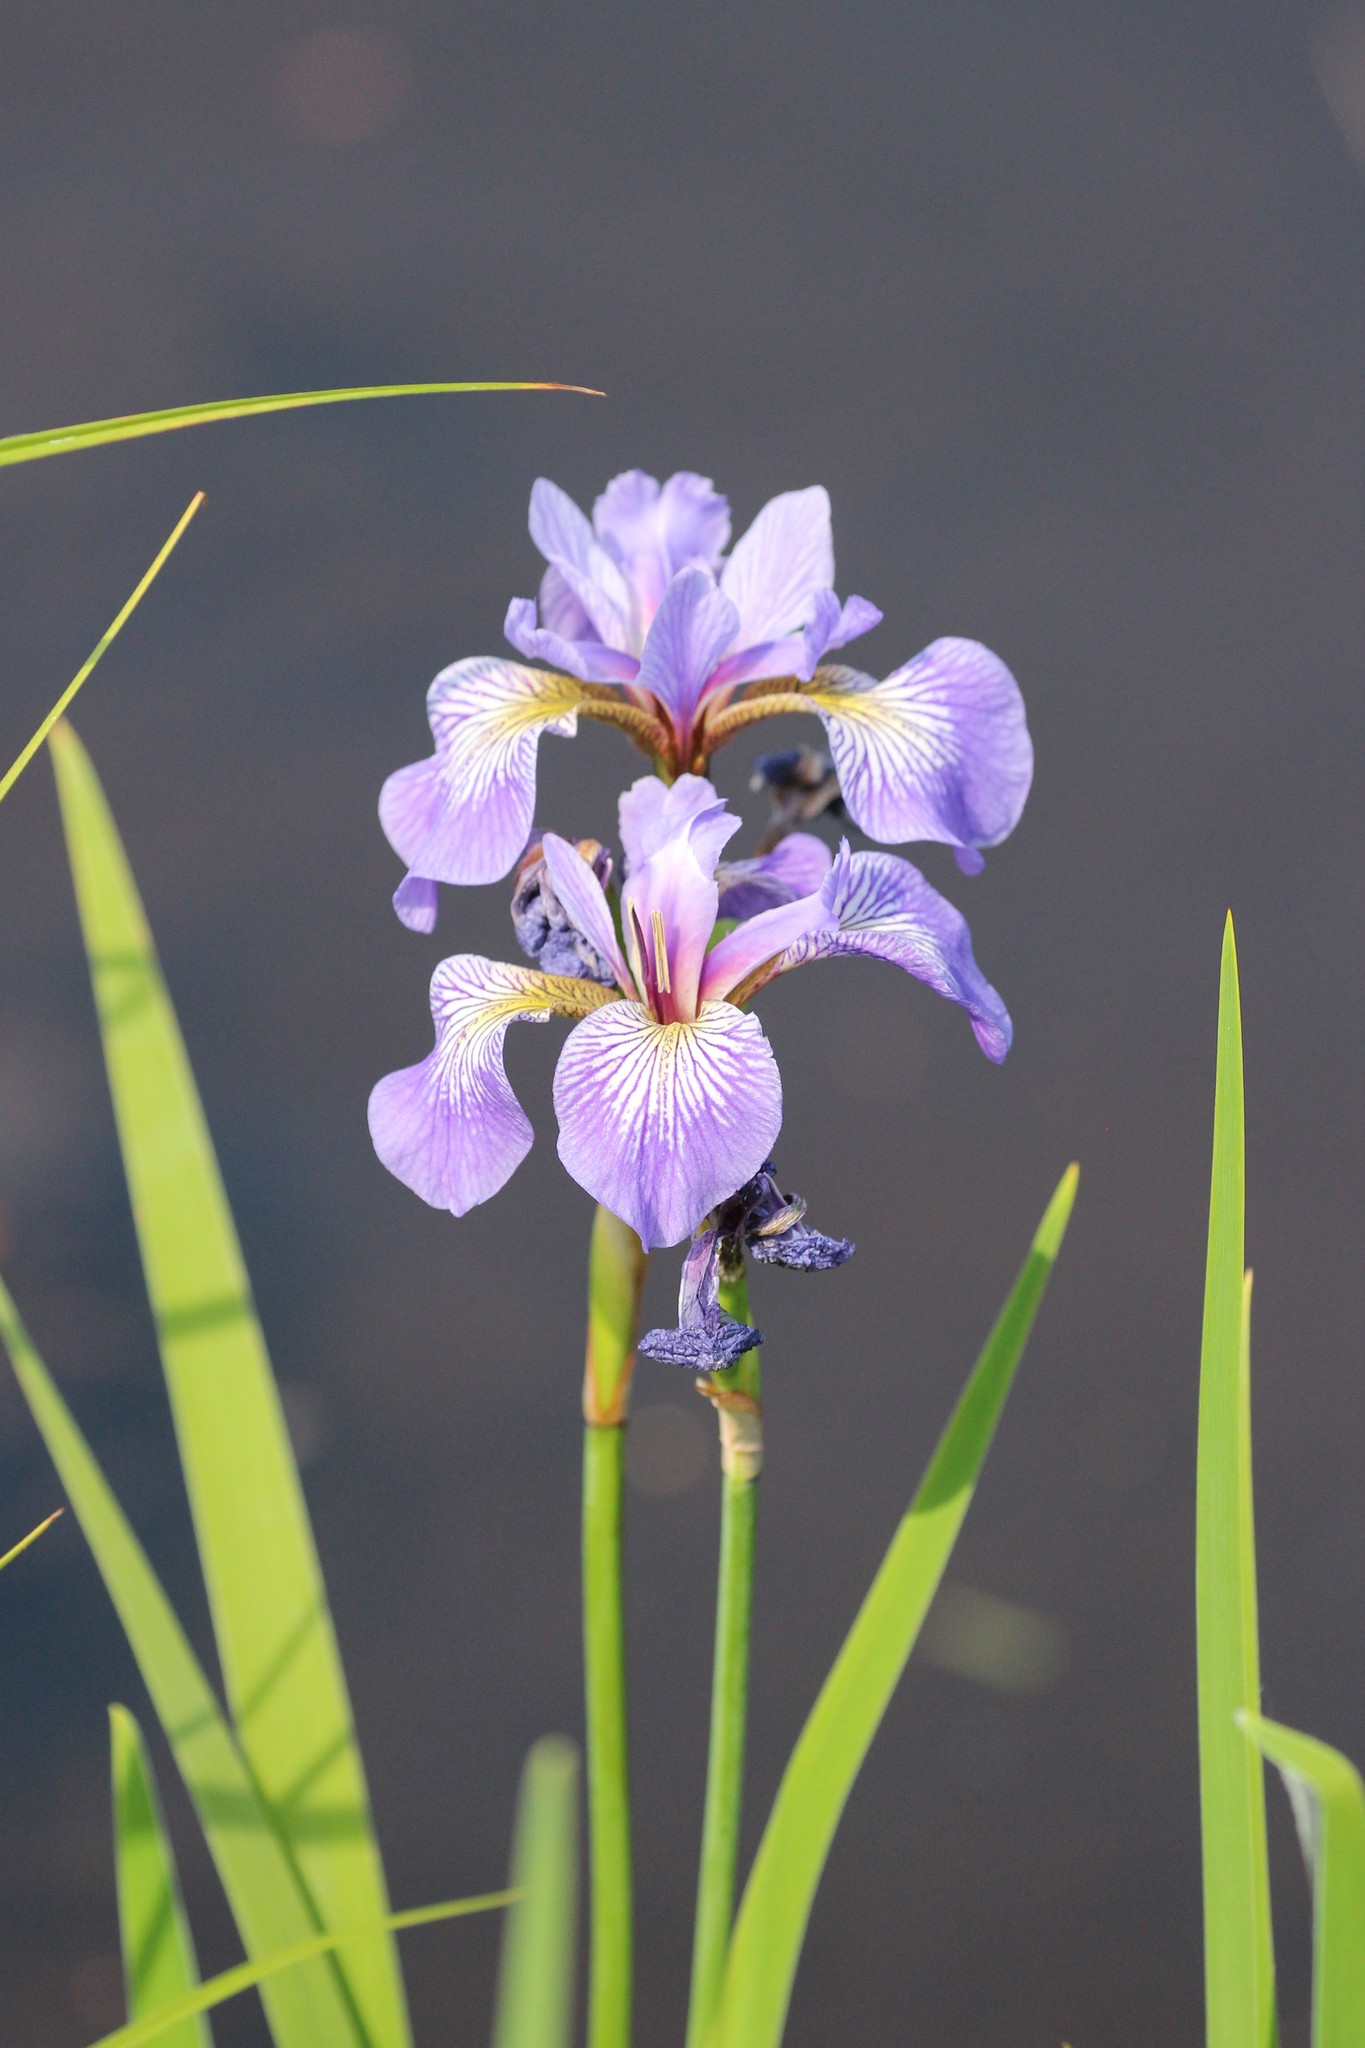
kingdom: Plantae
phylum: Tracheophyta
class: Liliopsida
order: Asparagales
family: Iridaceae
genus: Iris
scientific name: Iris versicolor
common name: Purple iris
